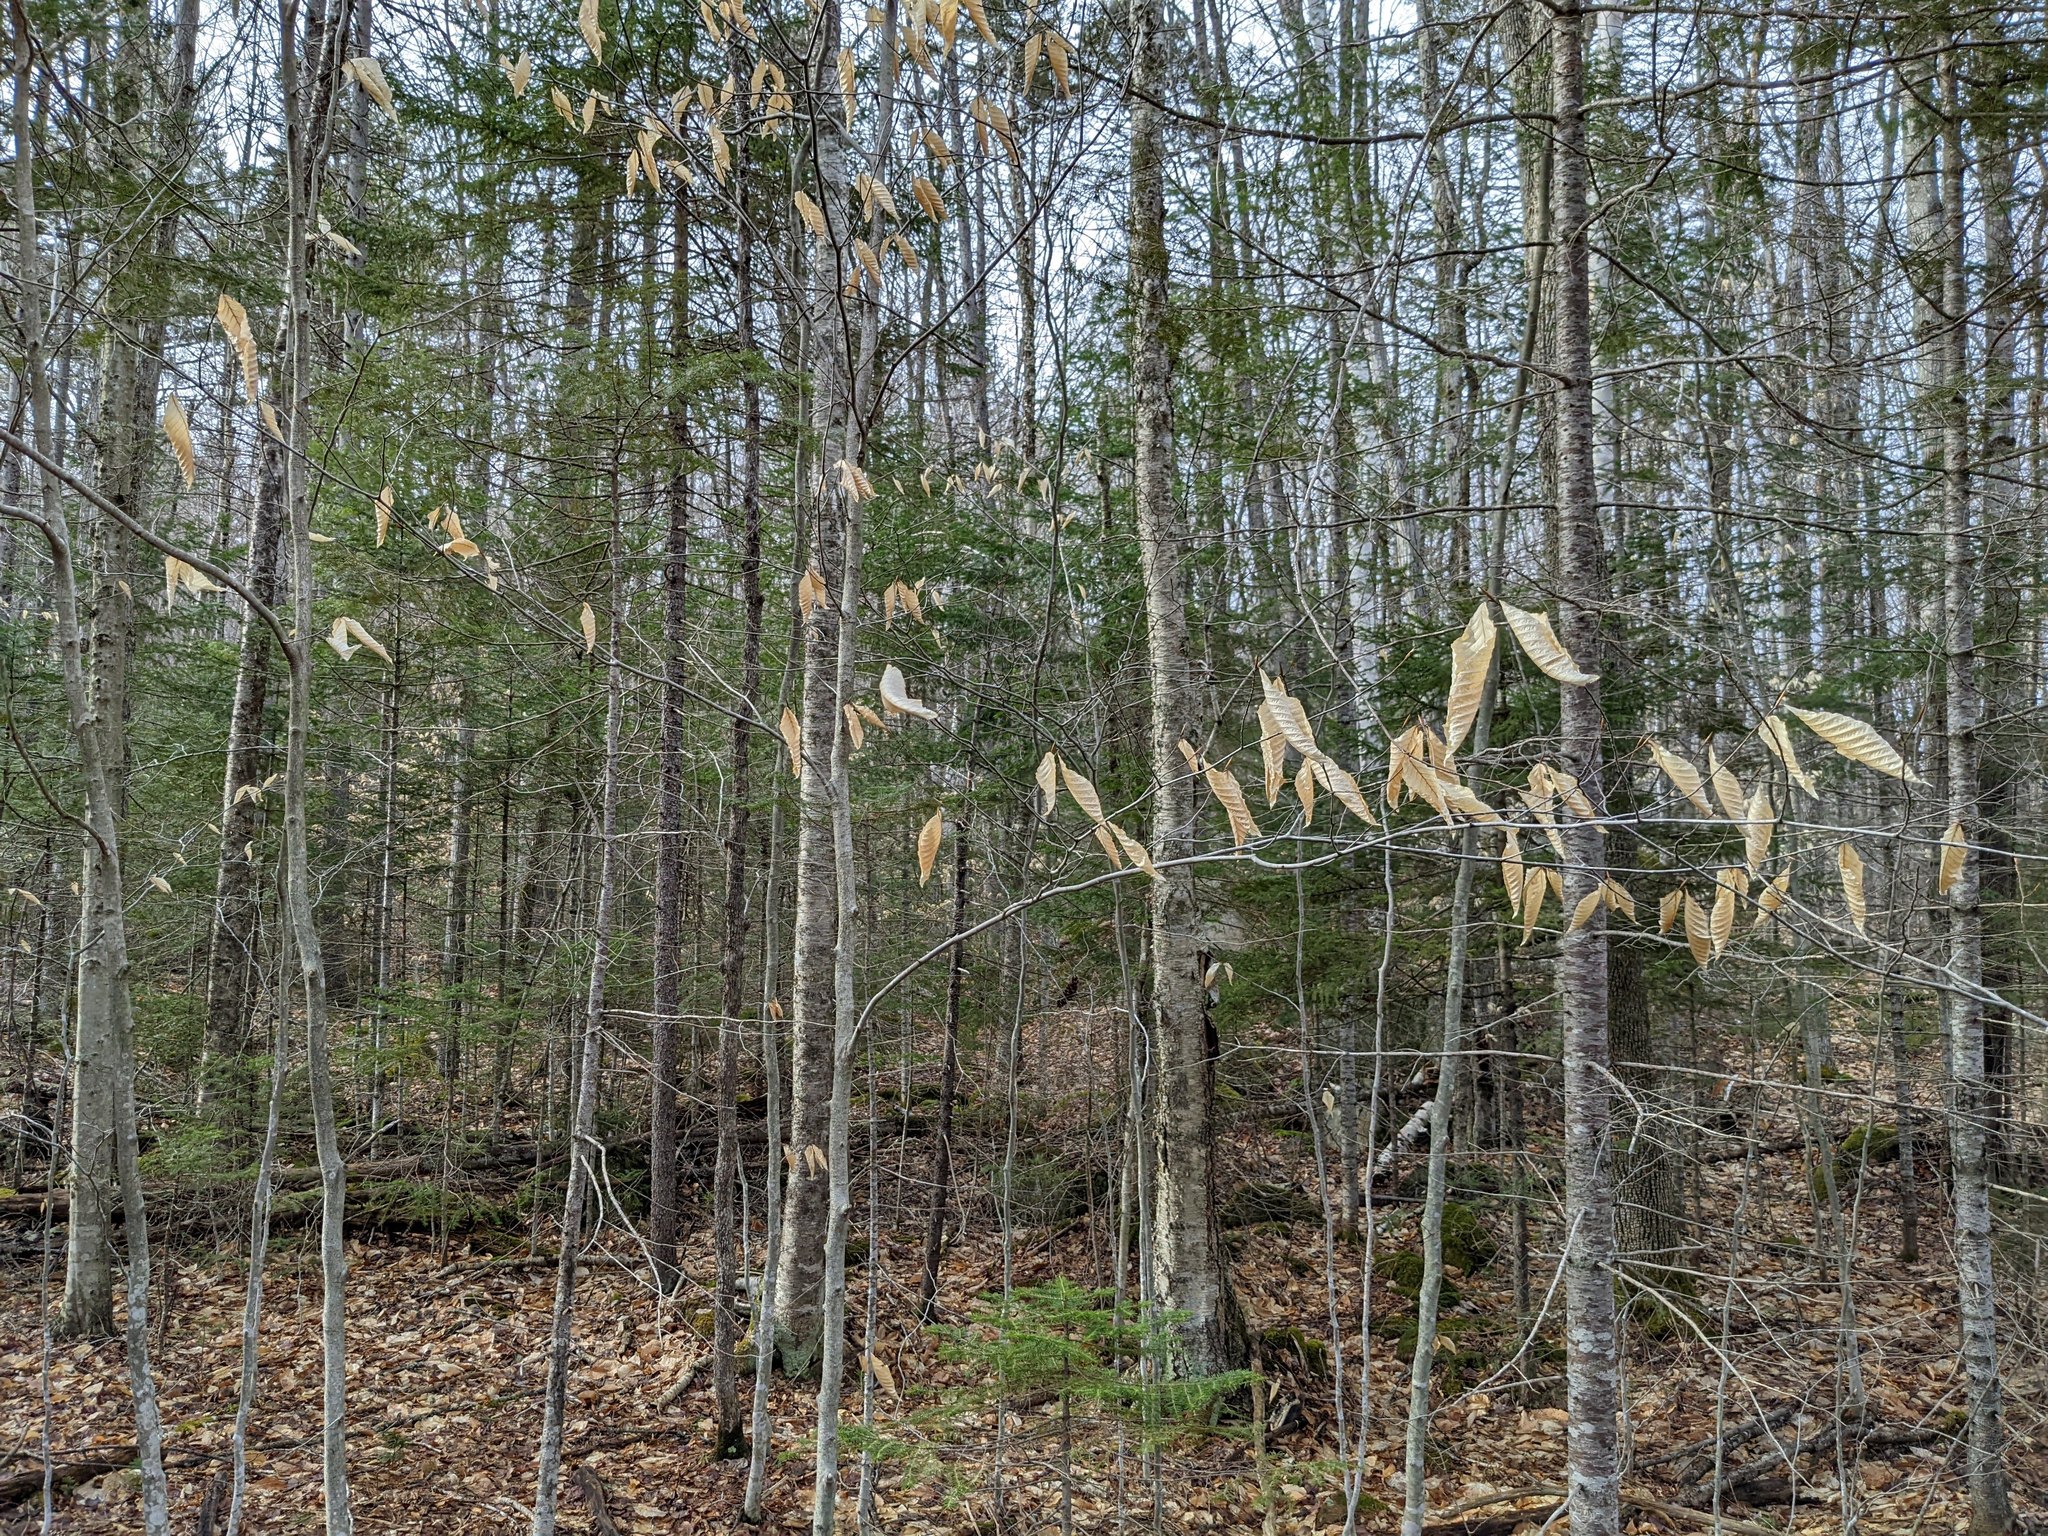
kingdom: Plantae
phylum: Tracheophyta
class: Magnoliopsida
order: Fagales
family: Fagaceae
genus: Fagus
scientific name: Fagus grandifolia
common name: American beech
